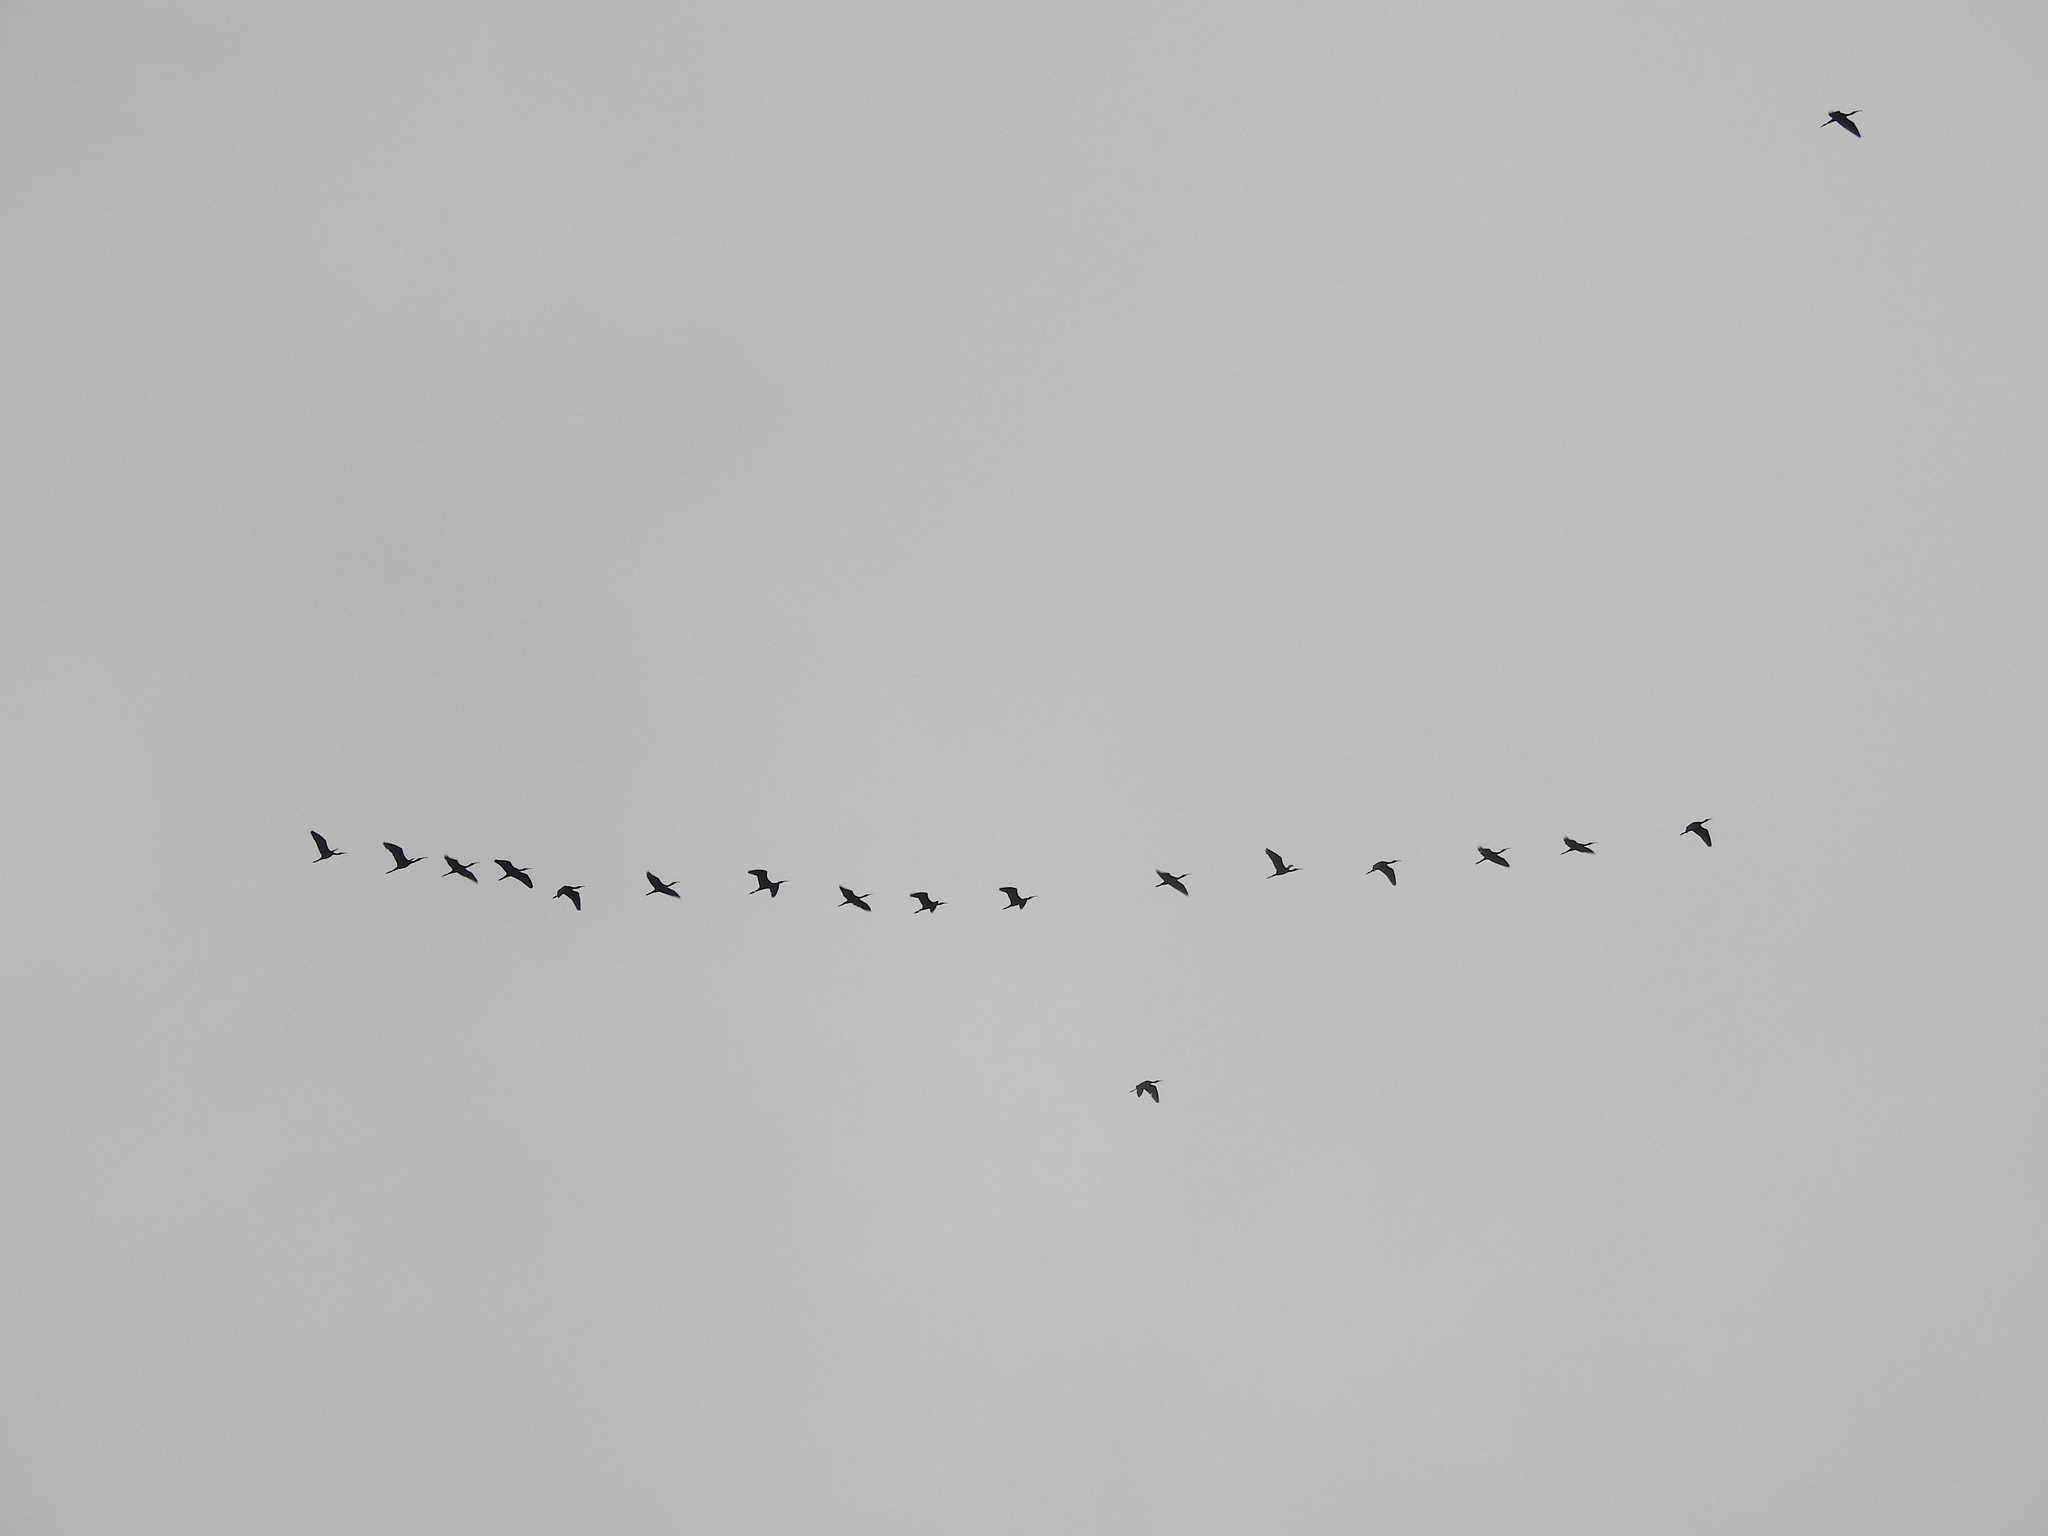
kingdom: Animalia
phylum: Chordata
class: Aves
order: Pelecaniformes
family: Threskiornithidae
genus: Plegadis
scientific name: Plegadis falcinellus
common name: Glossy ibis
